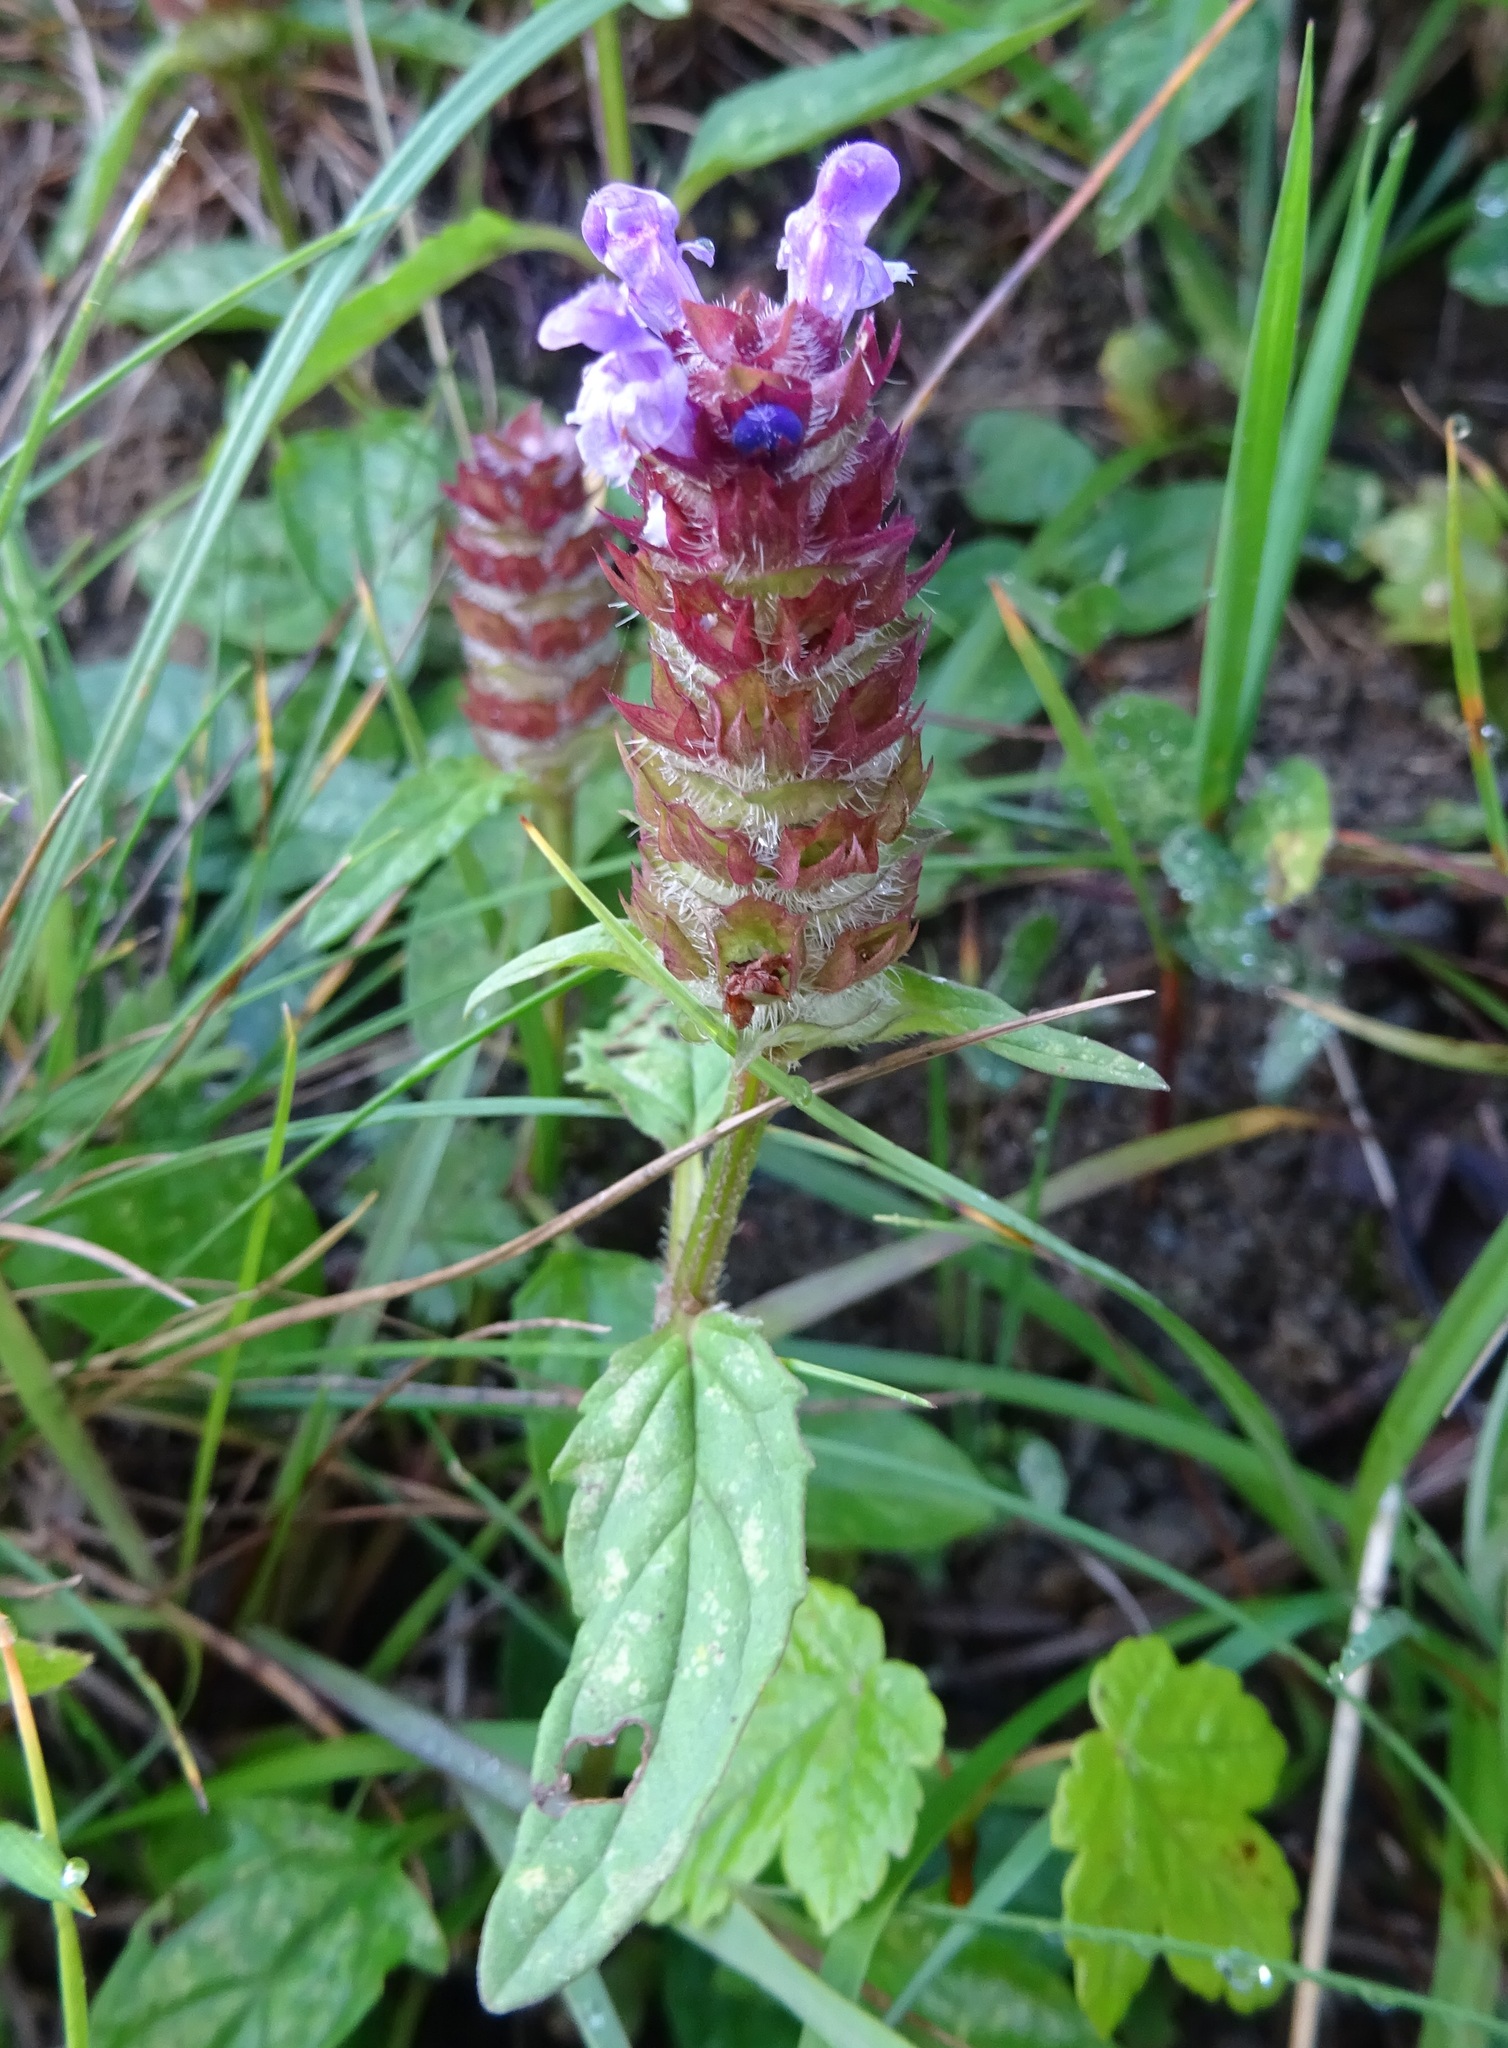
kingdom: Plantae
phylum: Tracheophyta
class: Magnoliopsida
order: Lamiales
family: Lamiaceae
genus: Prunella
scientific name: Prunella vulgaris
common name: Heal-all
